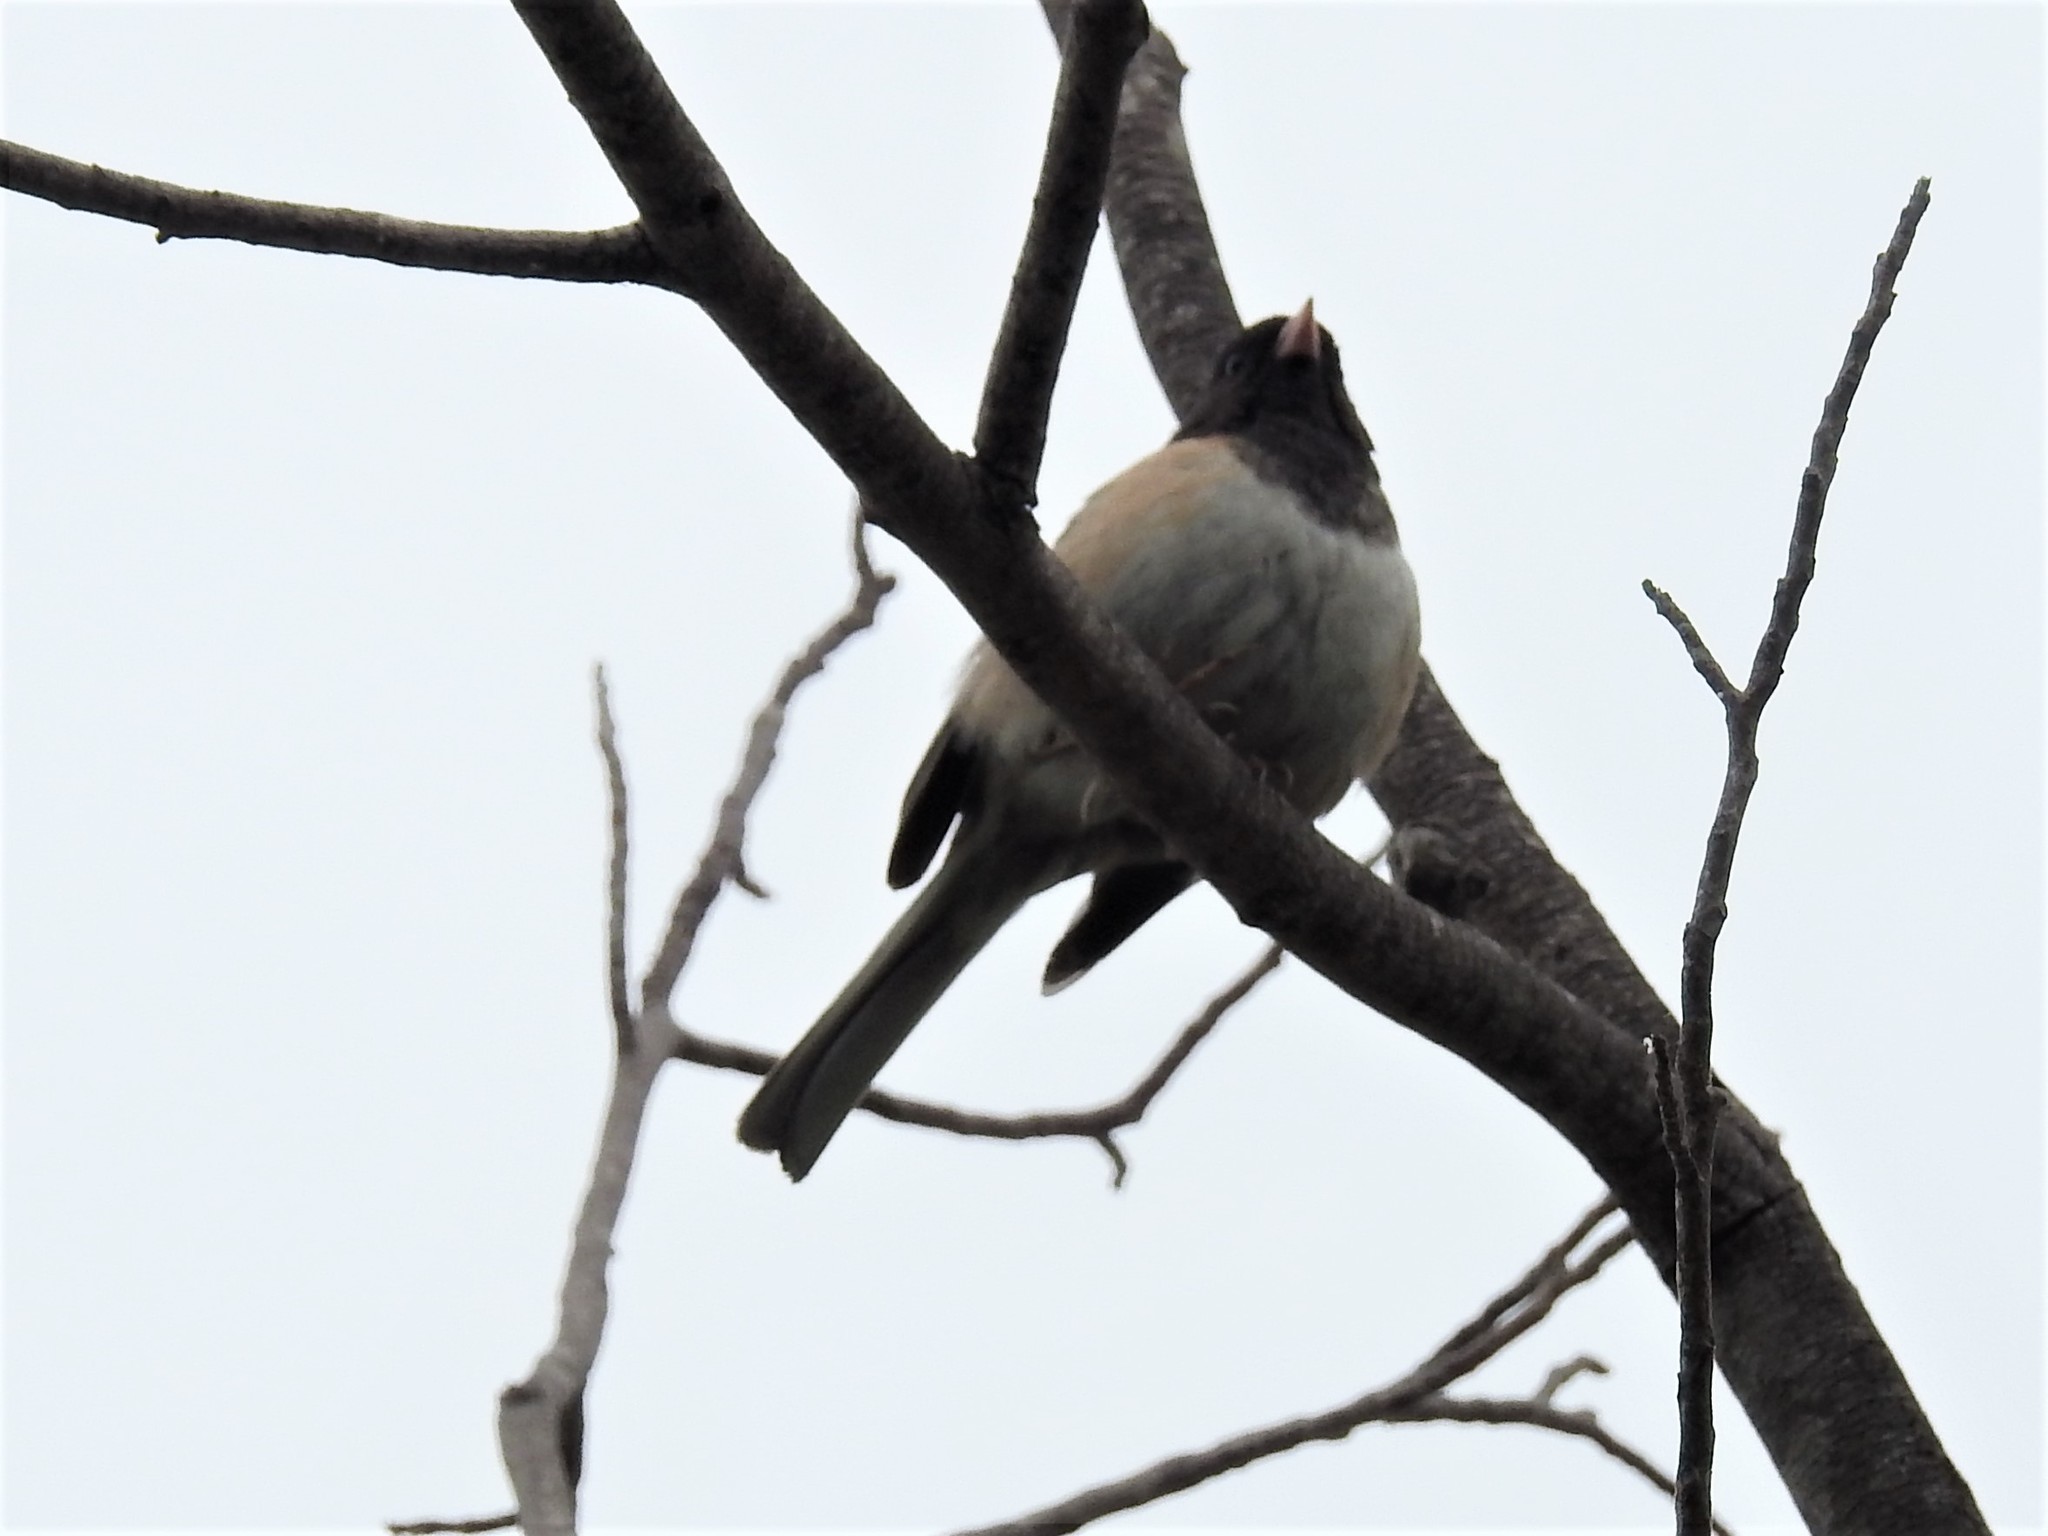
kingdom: Animalia
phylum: Chordata
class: Aves
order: Passeriformes
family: Passerellidae
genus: Junco
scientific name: Junco hyemalis
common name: Dark-eyed junco
